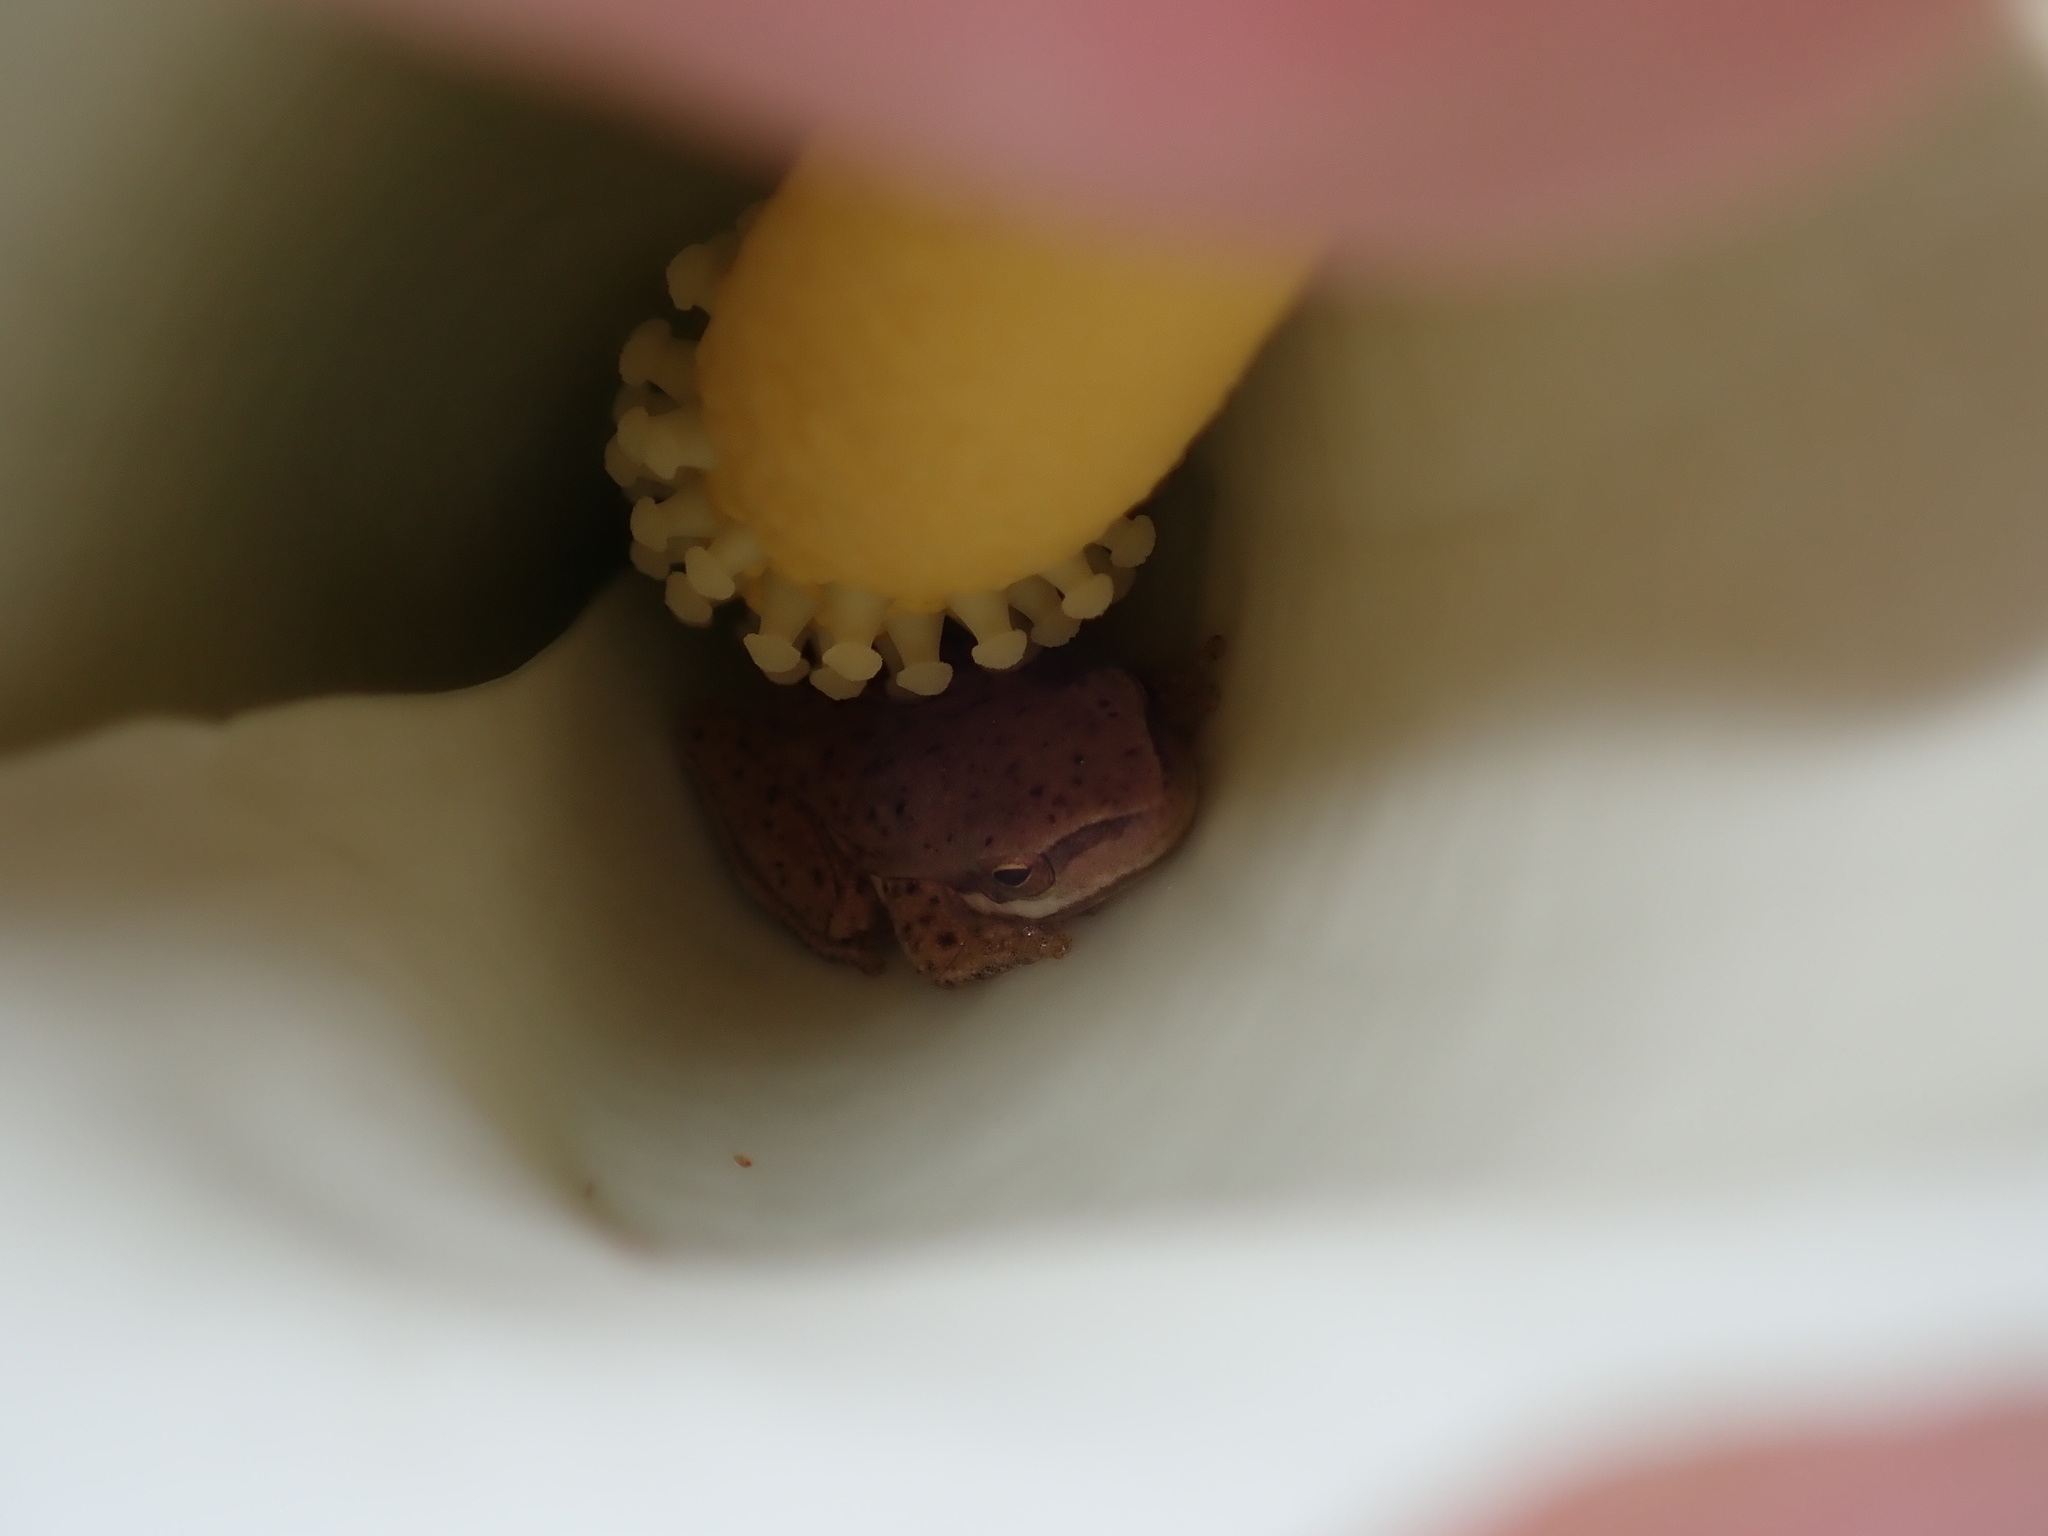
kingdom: Animalia
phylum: Chordata
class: Amphibia
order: Anura
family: Pelodryadidae
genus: Litoria
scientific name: Litoria fallax
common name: Eastern dwarf treefrog
